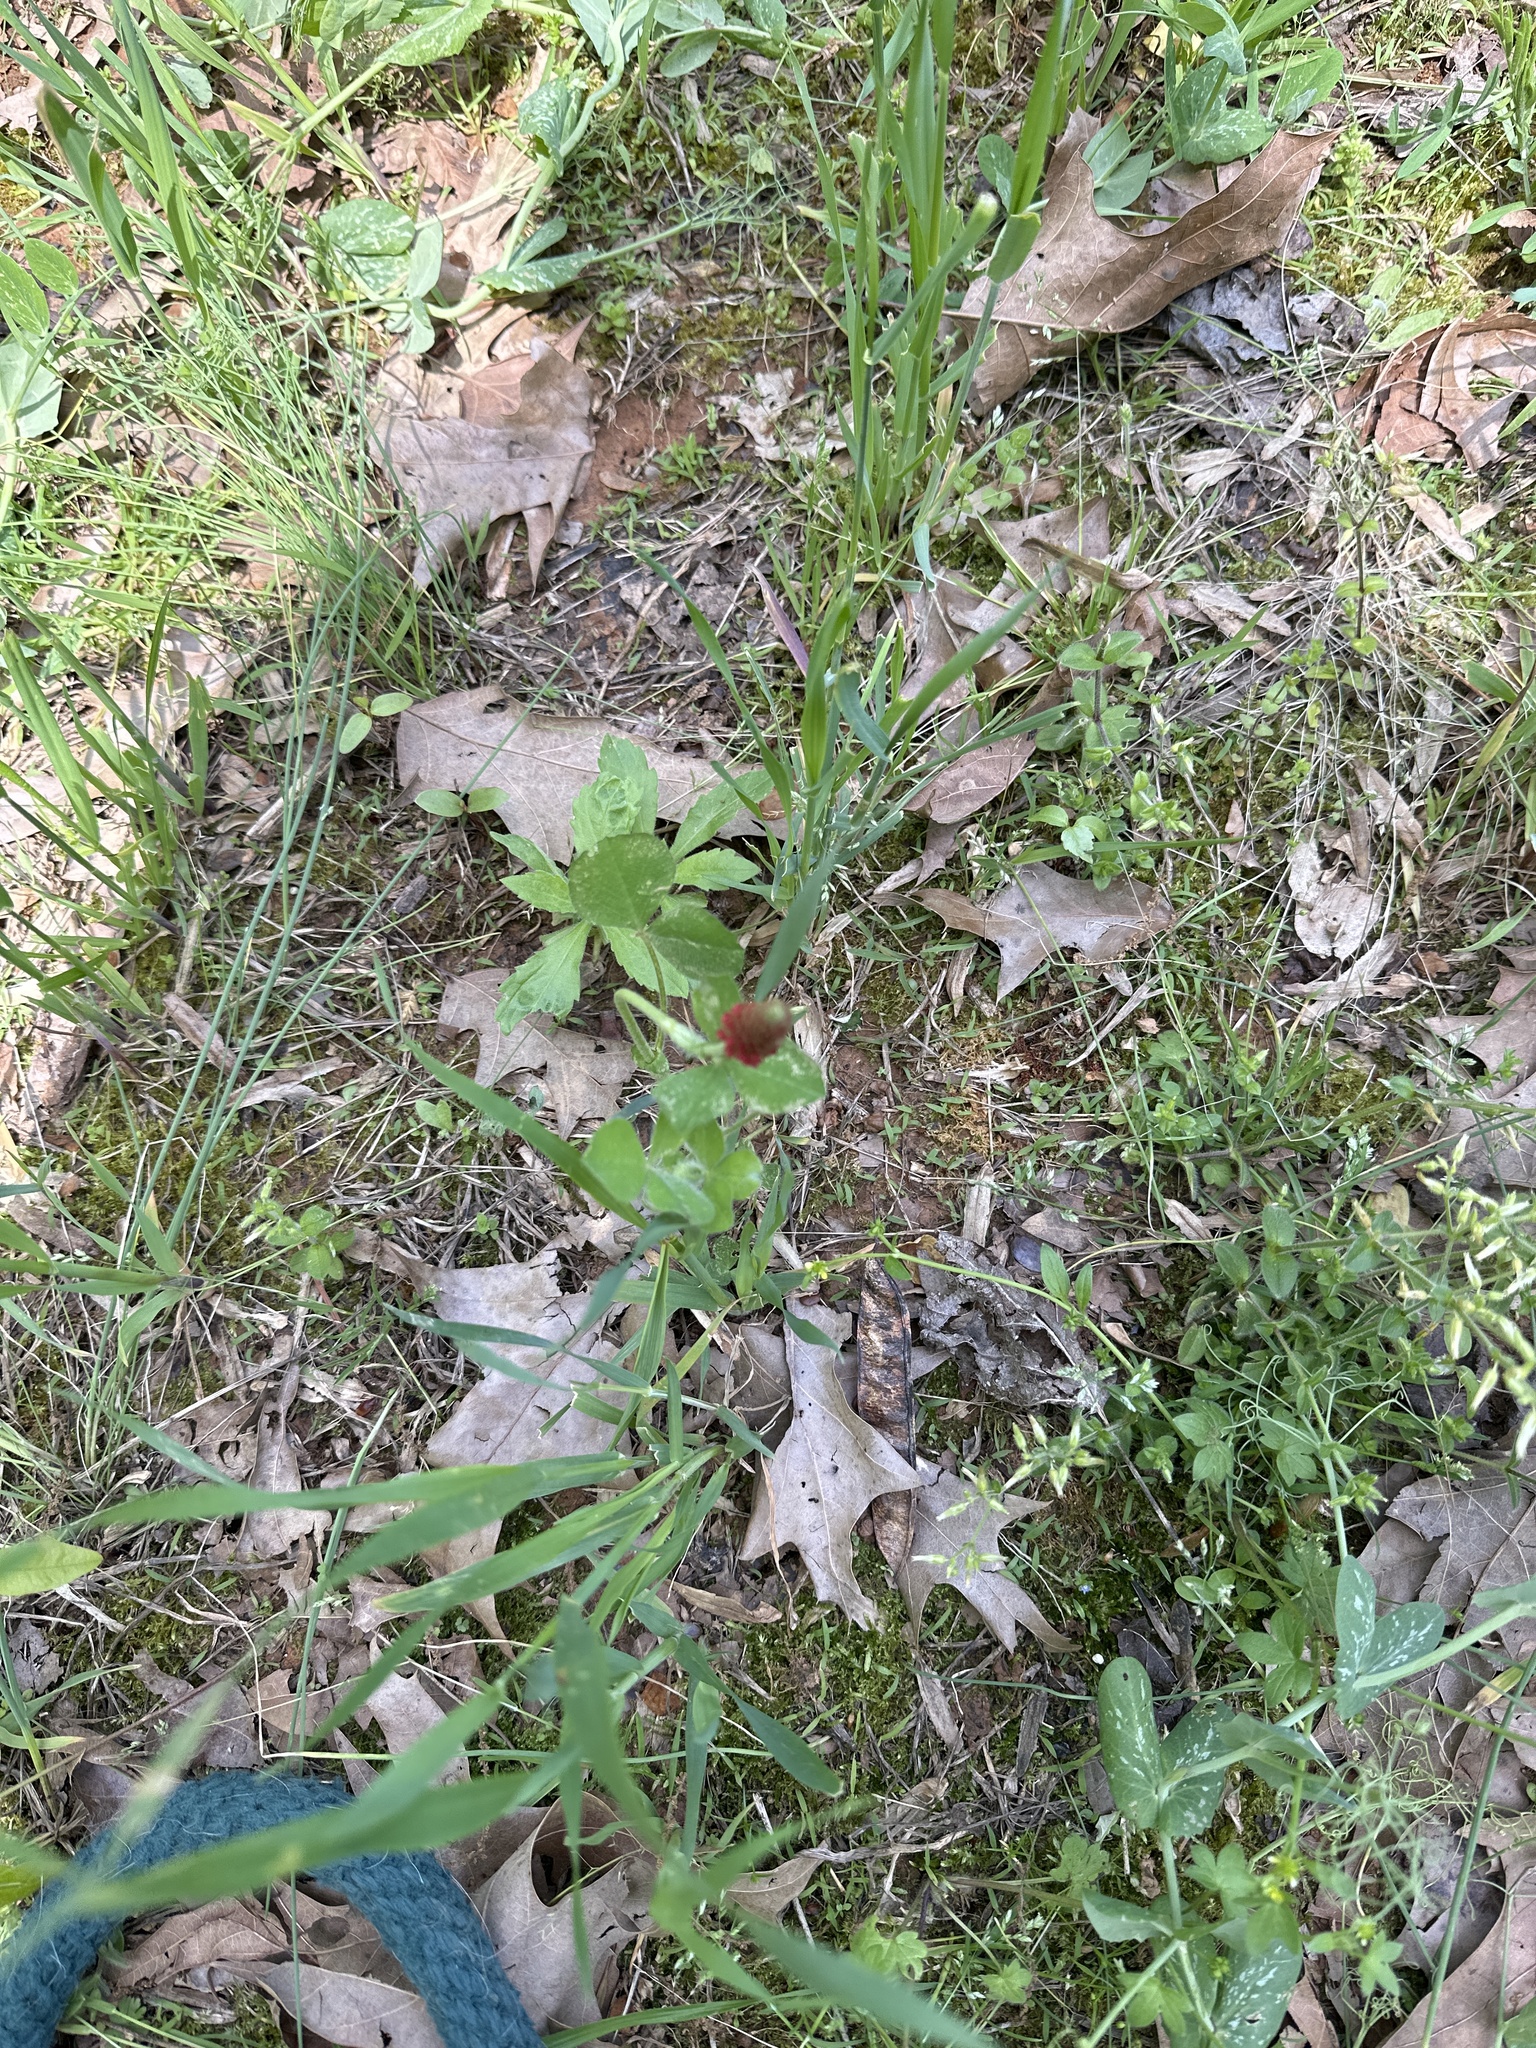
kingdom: Plantae
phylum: Tracheophyta
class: Magnoliopsida
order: Fabales
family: Fabaceae
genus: Trifolium
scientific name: Trifolium incarnatum
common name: Crimson clover
